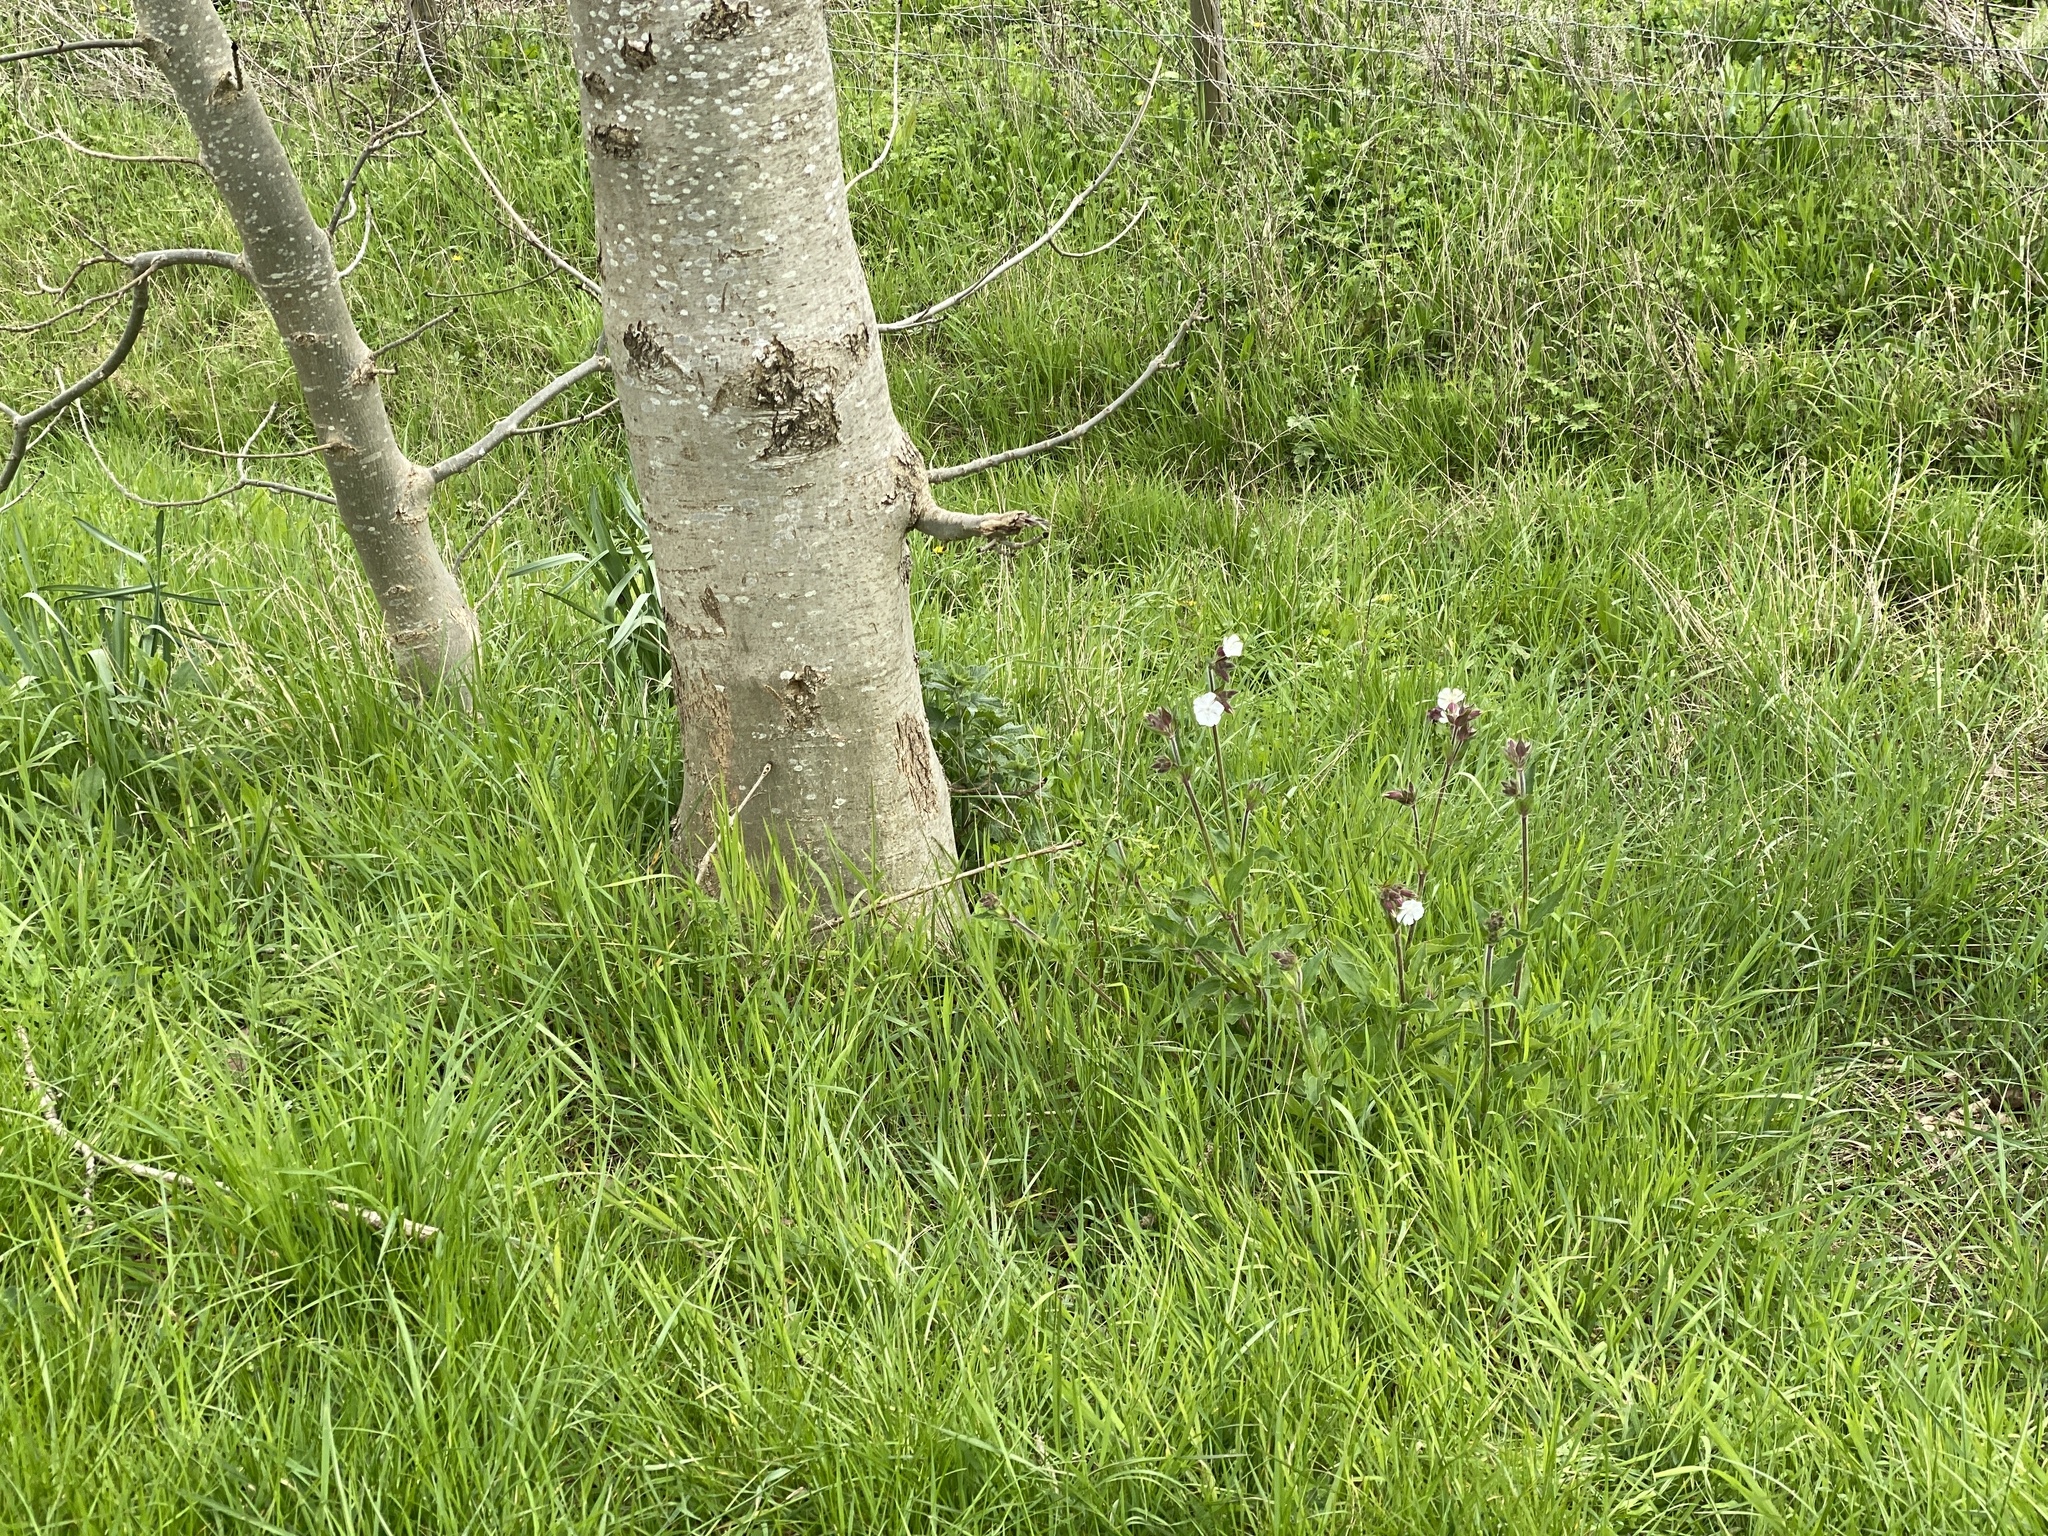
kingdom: Plantae
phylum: Tracheophyta
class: Magnoliopsida
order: Caryophyllales
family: Caryophyllaceae
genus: Silene
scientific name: Silene latifolia
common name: White campion
